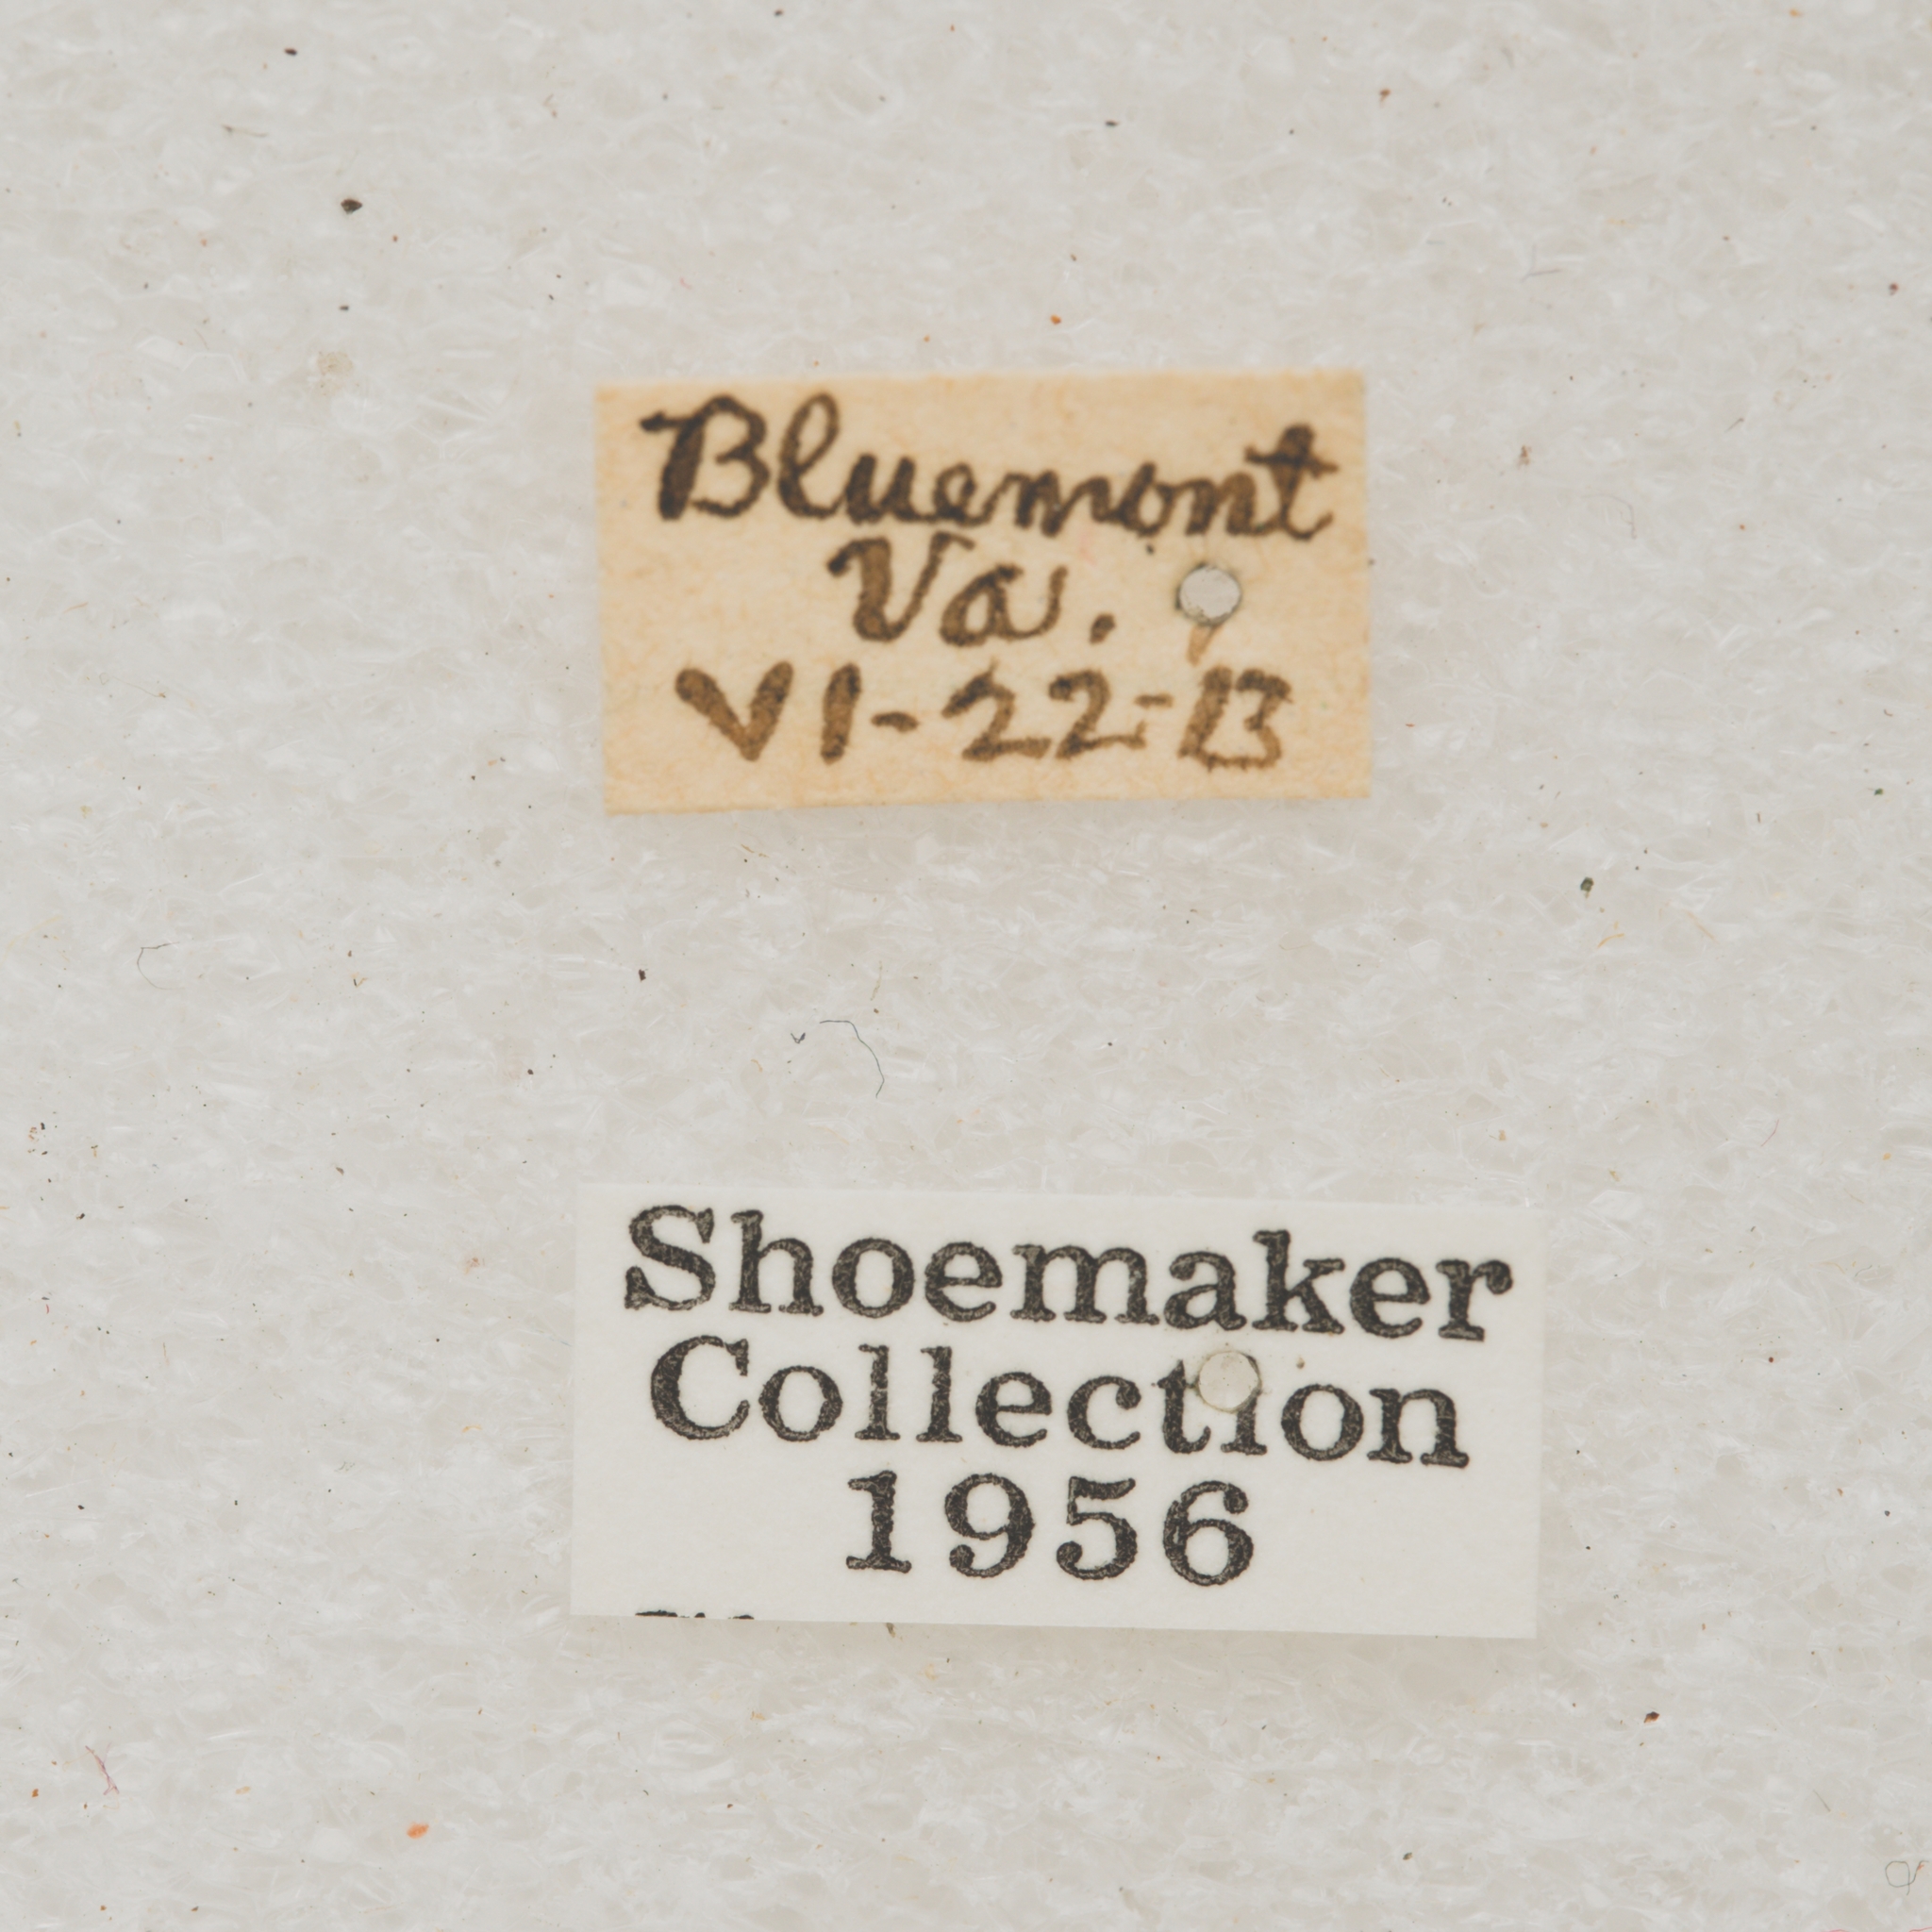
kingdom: Animalia
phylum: Arthropoda
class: Insecta
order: Coleoptera
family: Cerambycidae
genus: Goes
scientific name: Goes debilis
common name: Oak branch borer
